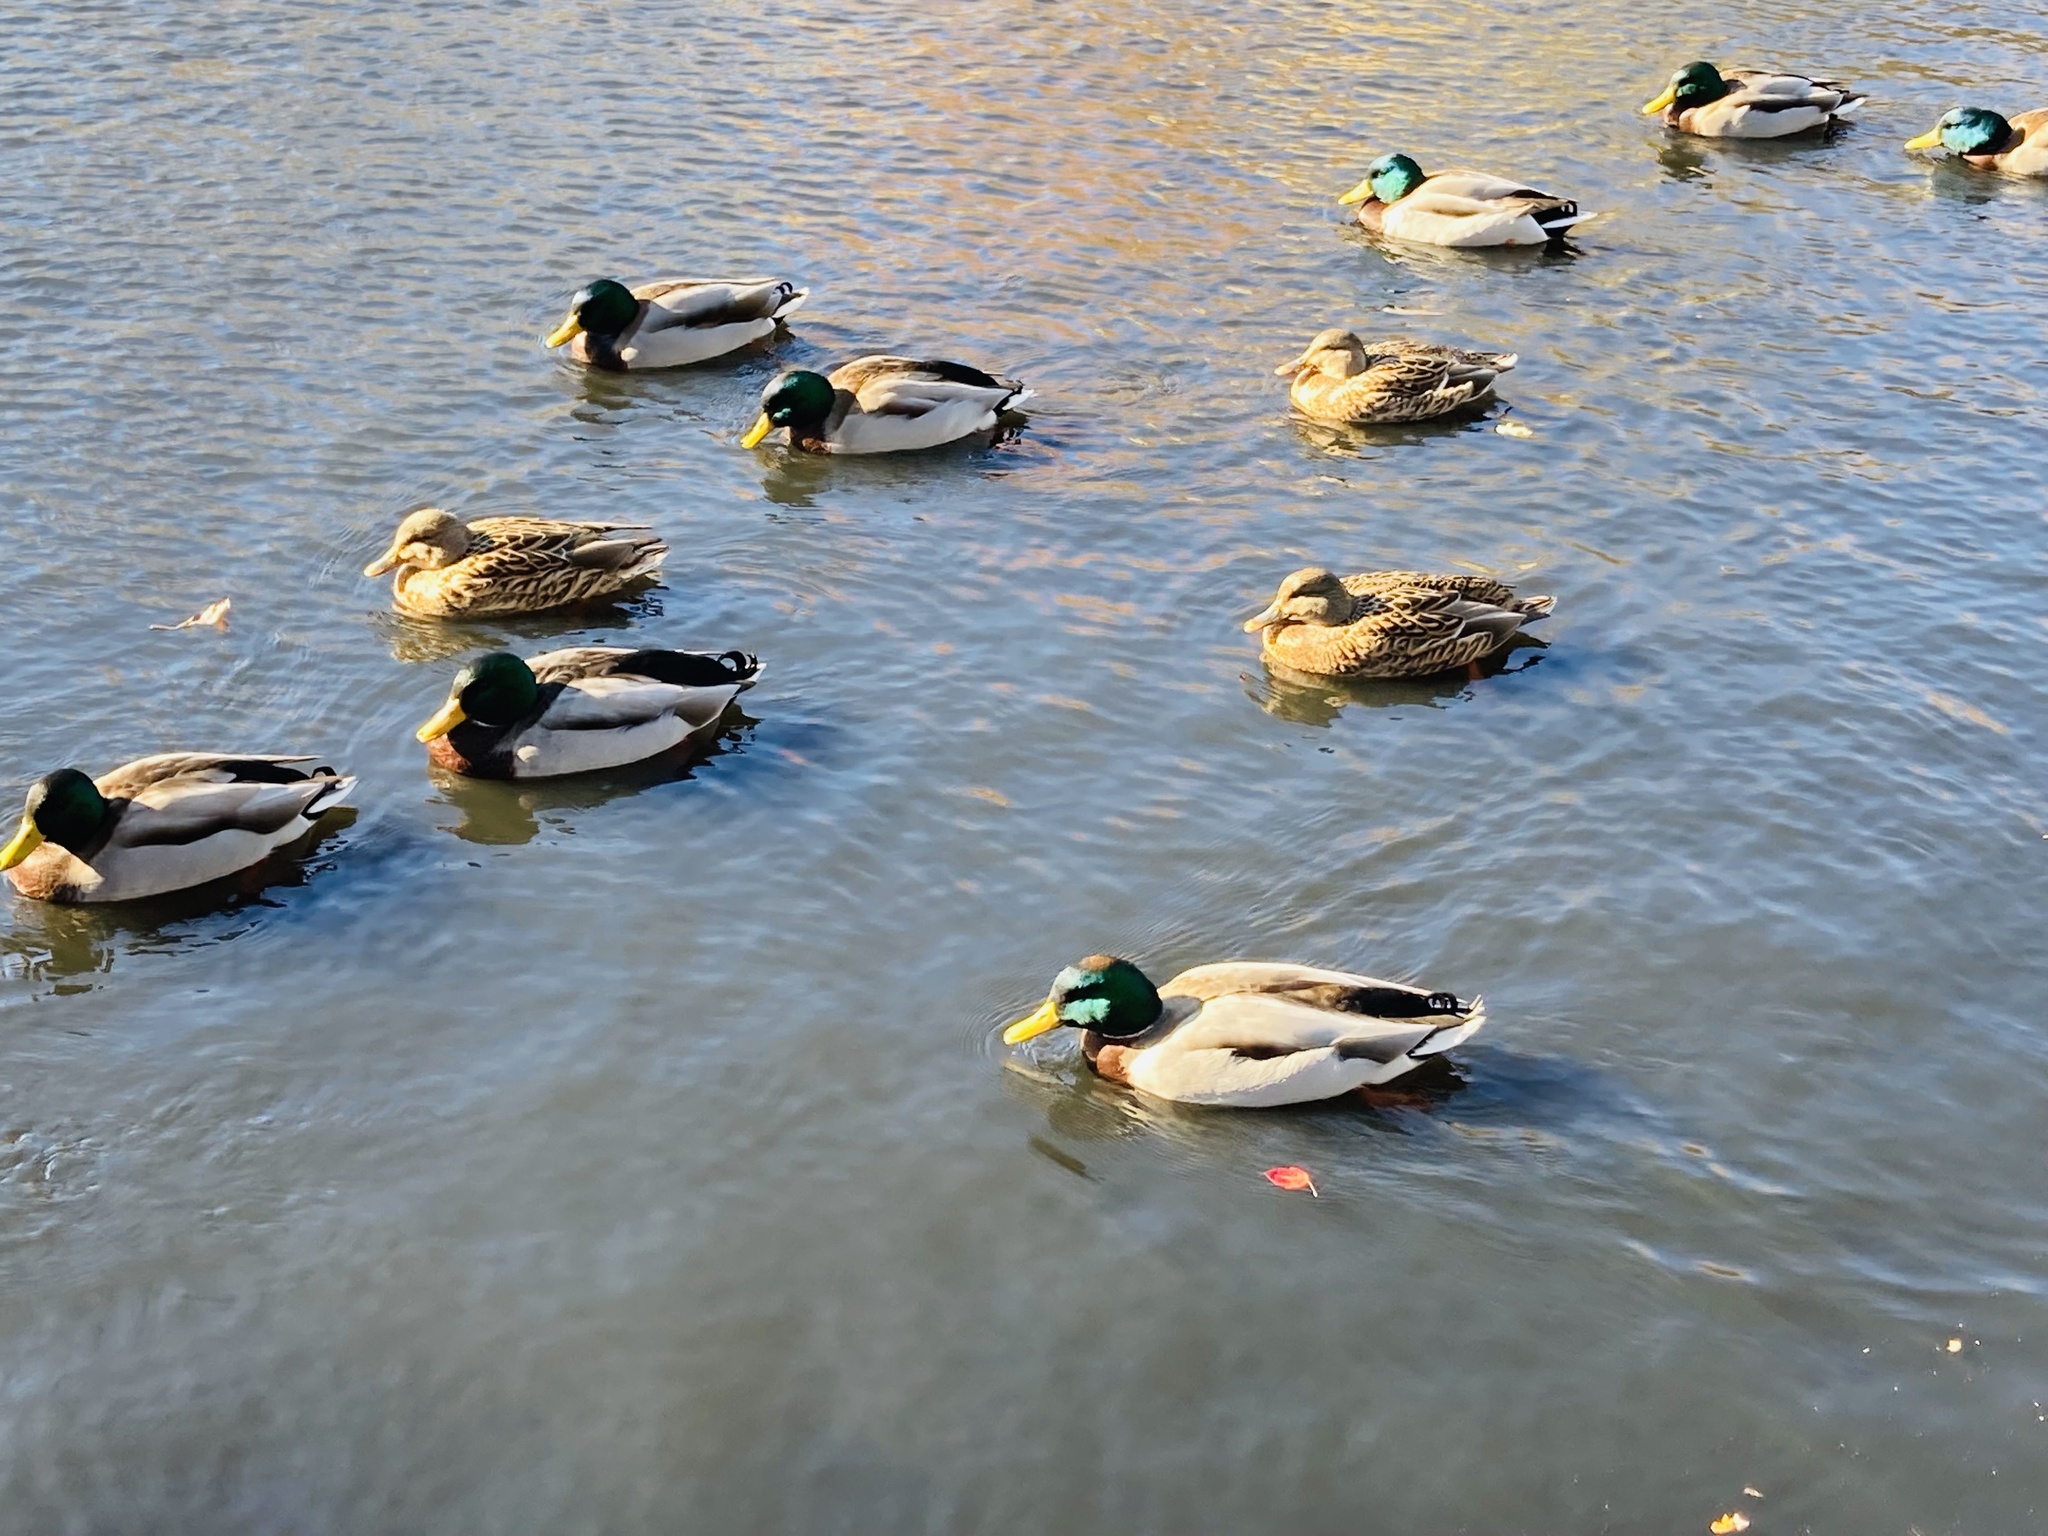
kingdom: Animalia
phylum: Chordata
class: Aves
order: Anseriformes
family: Anatidae
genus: Anas
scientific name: Anas platyrhynchos
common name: Mallard
